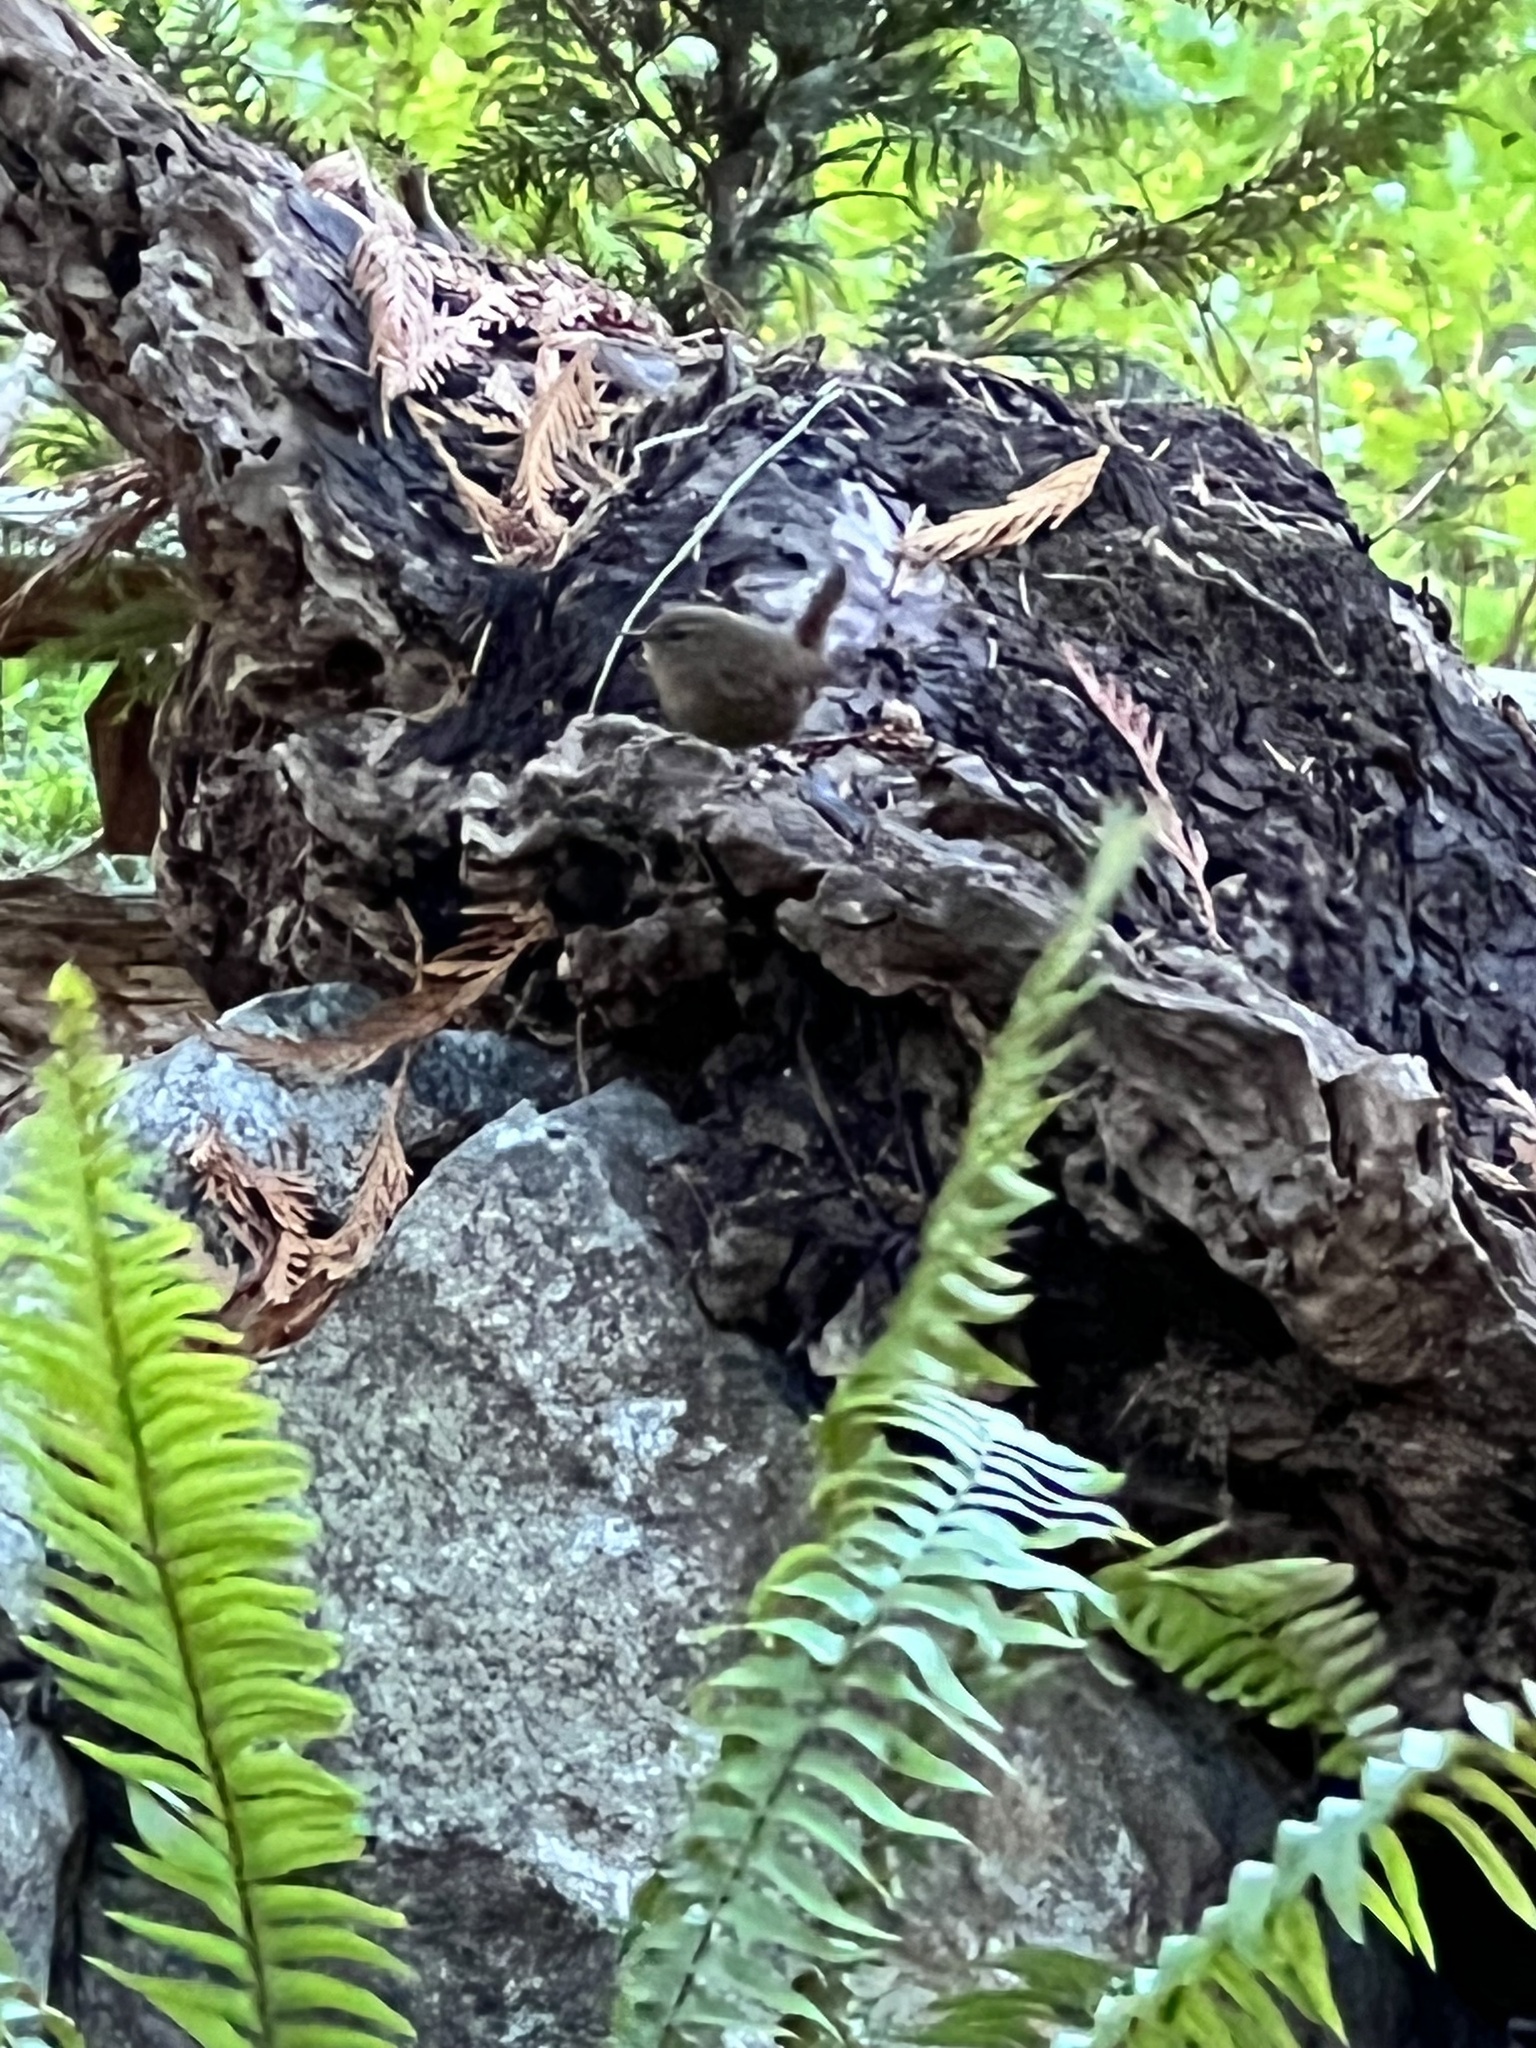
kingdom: Animalia
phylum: Chordata
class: Aves
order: Passeriformes
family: Troglodytidae
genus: Troglodytes
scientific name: Troglodytes pacificus
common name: Pacific wren
